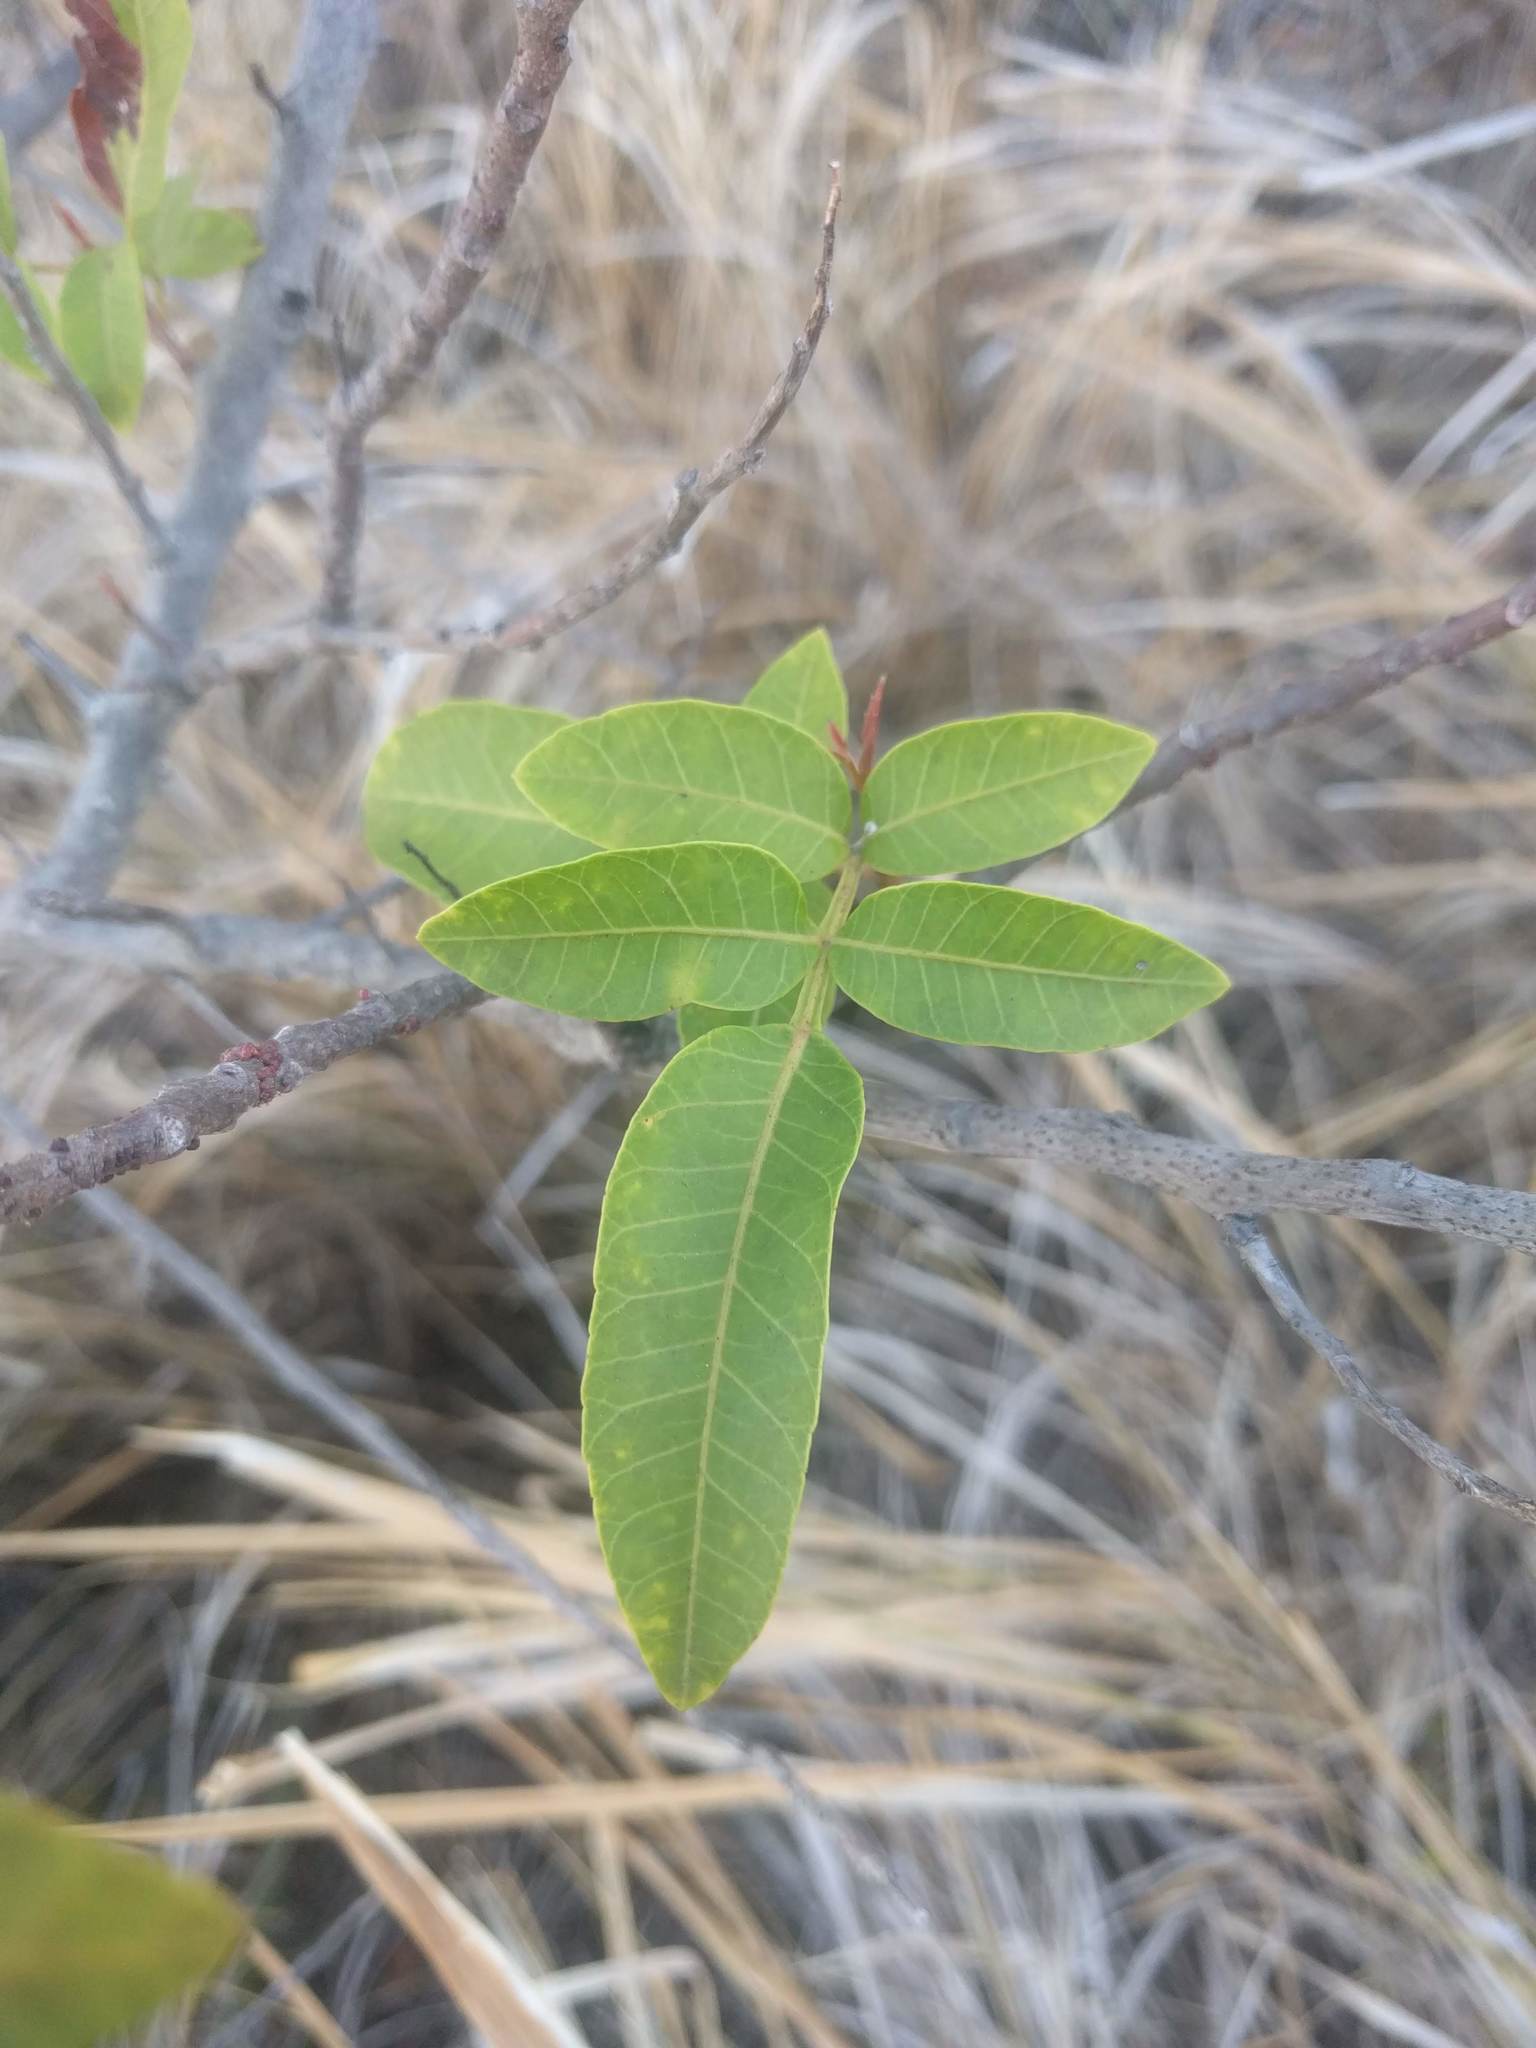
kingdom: Plantae
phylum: Tracheophyta
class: Magnoliopsida
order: Sapindales
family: Anacardiaceae
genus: Schinus
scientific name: Schinus terebinthifolia
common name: Brazilian peppertree
